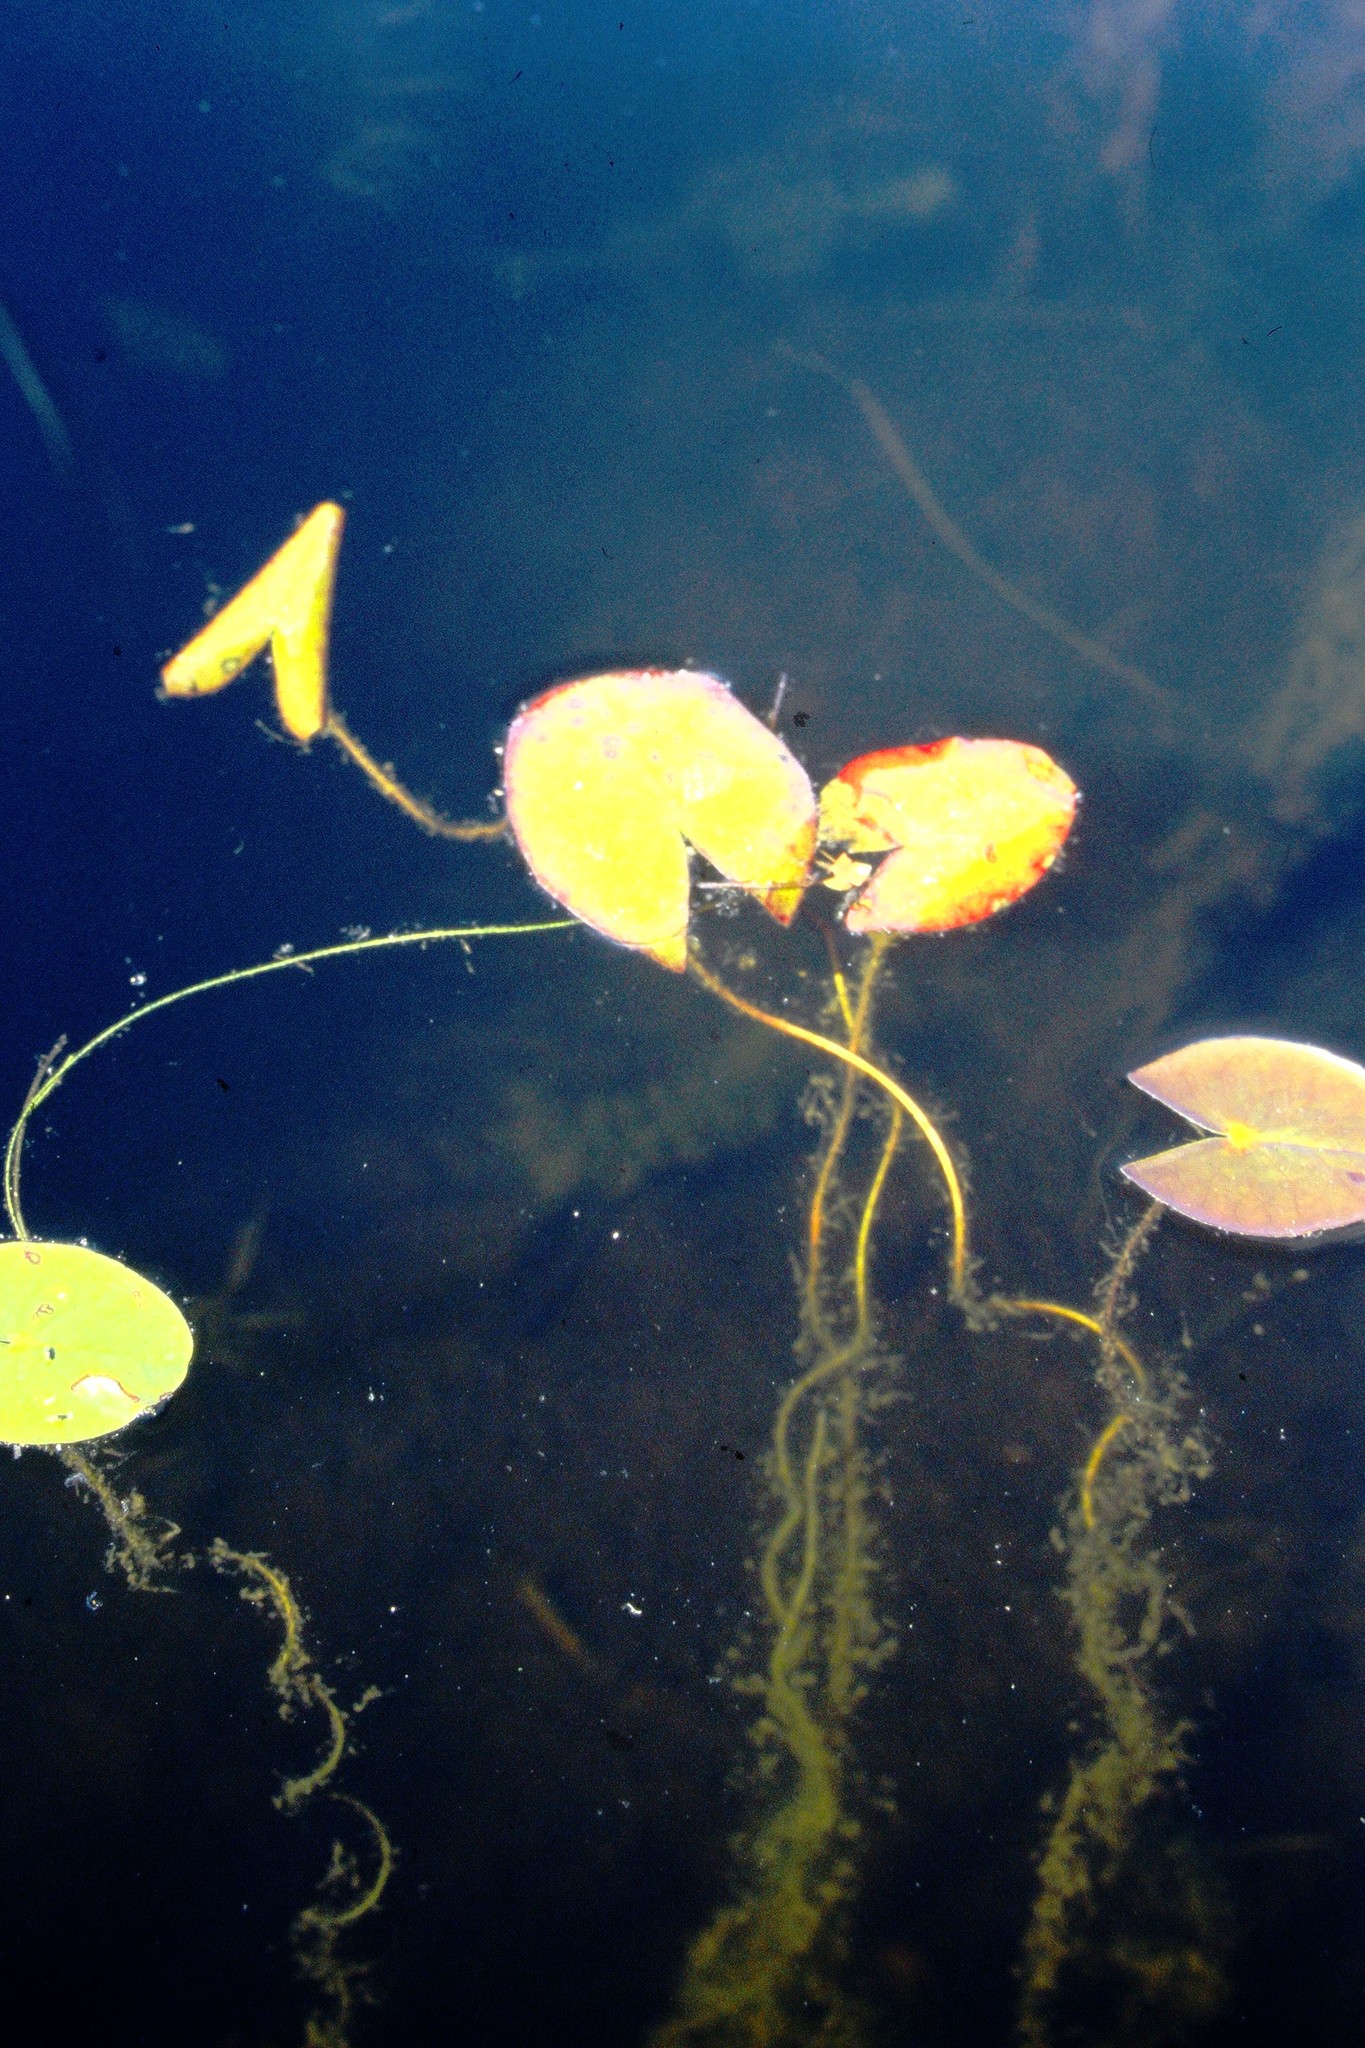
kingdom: Plantae
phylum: Tracheophyta
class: Magnoliopsida
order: Nymphaeales
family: Nymphaeaceae
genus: Nymphaea
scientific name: Nymphaea leibergii
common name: Dwarf water-lily
